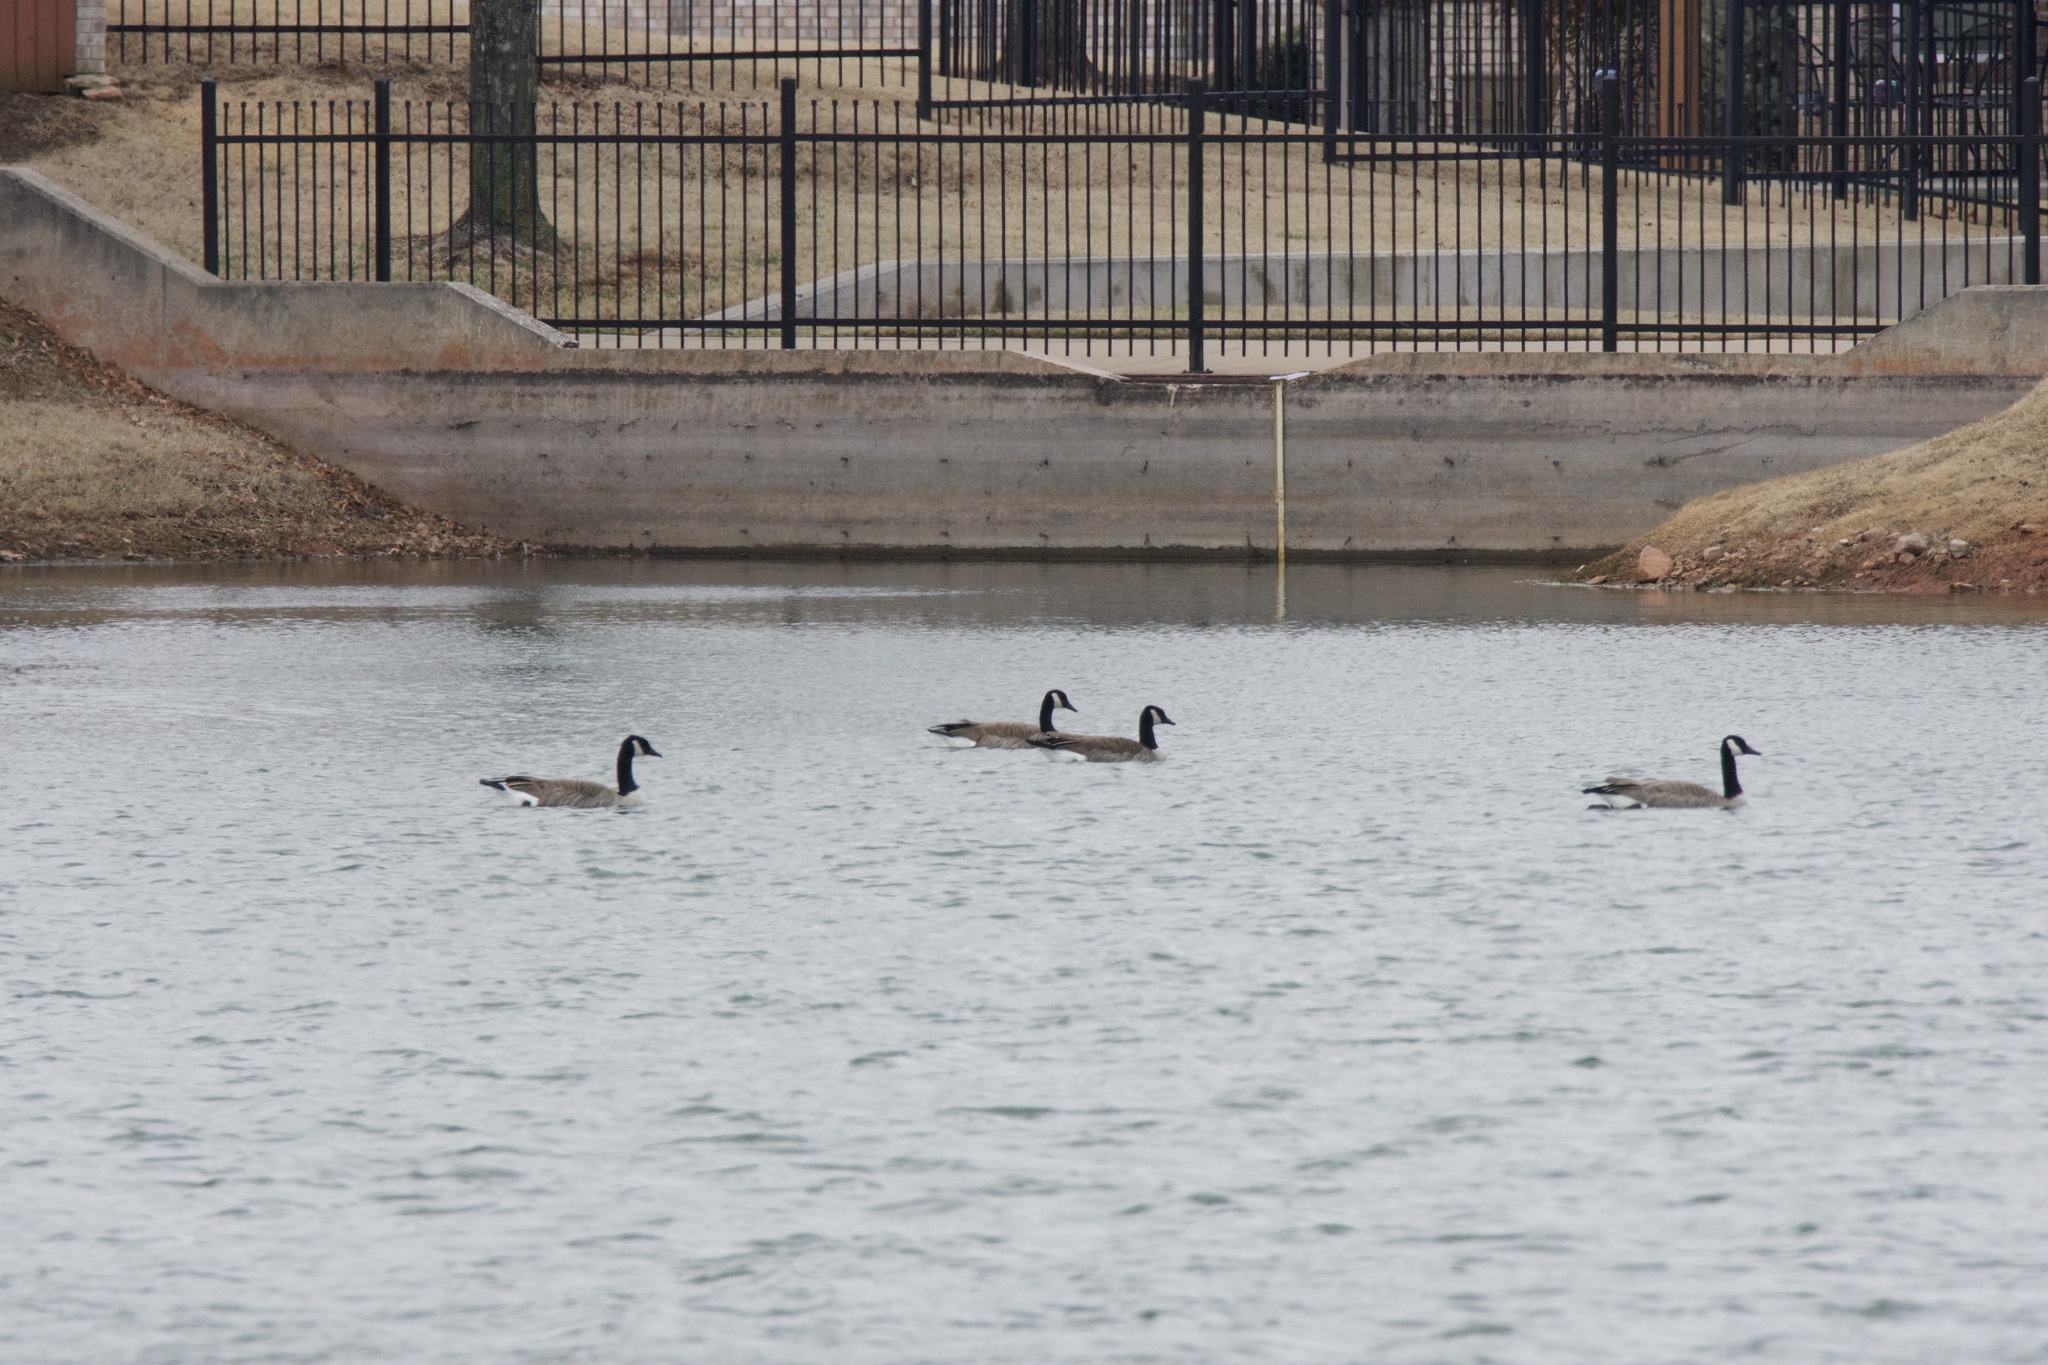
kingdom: Animalia
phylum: Chordata
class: Aves
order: Anseriformes
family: Anatidae
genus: Branta
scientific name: Branta canadensis
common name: Canada goose
